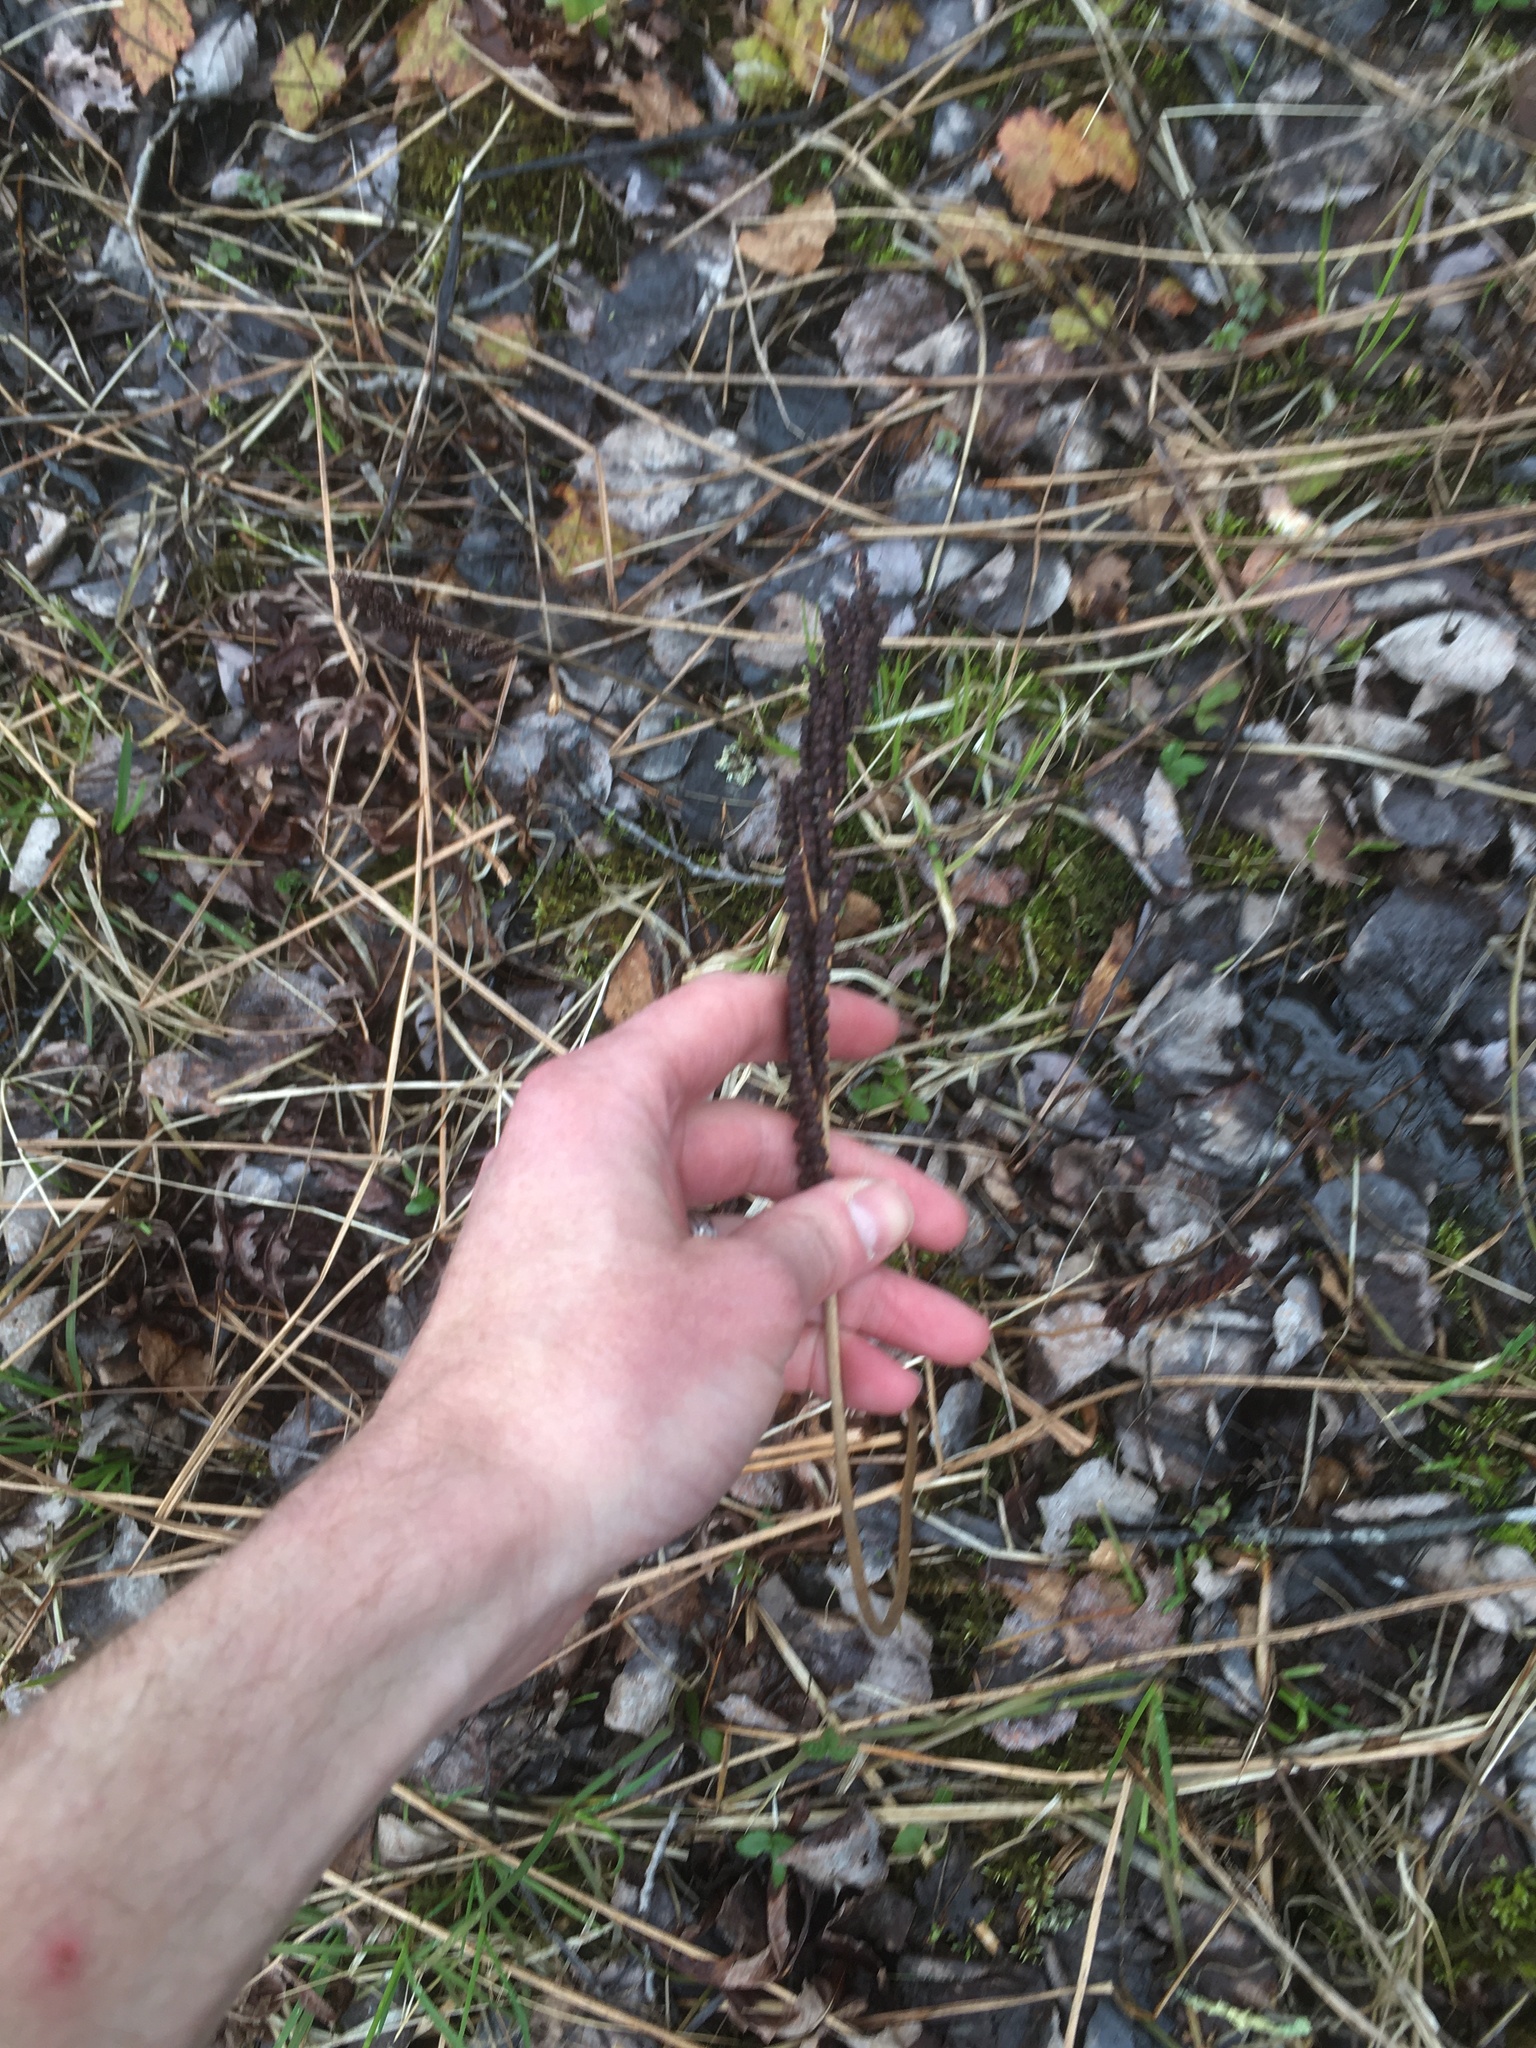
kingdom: Plantae
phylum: Tracheophyta
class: Polypodiopsida
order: Polypodiales
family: Onocleaceae
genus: Onoclea
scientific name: Onoclea sensibilis
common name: Sensitive fern
